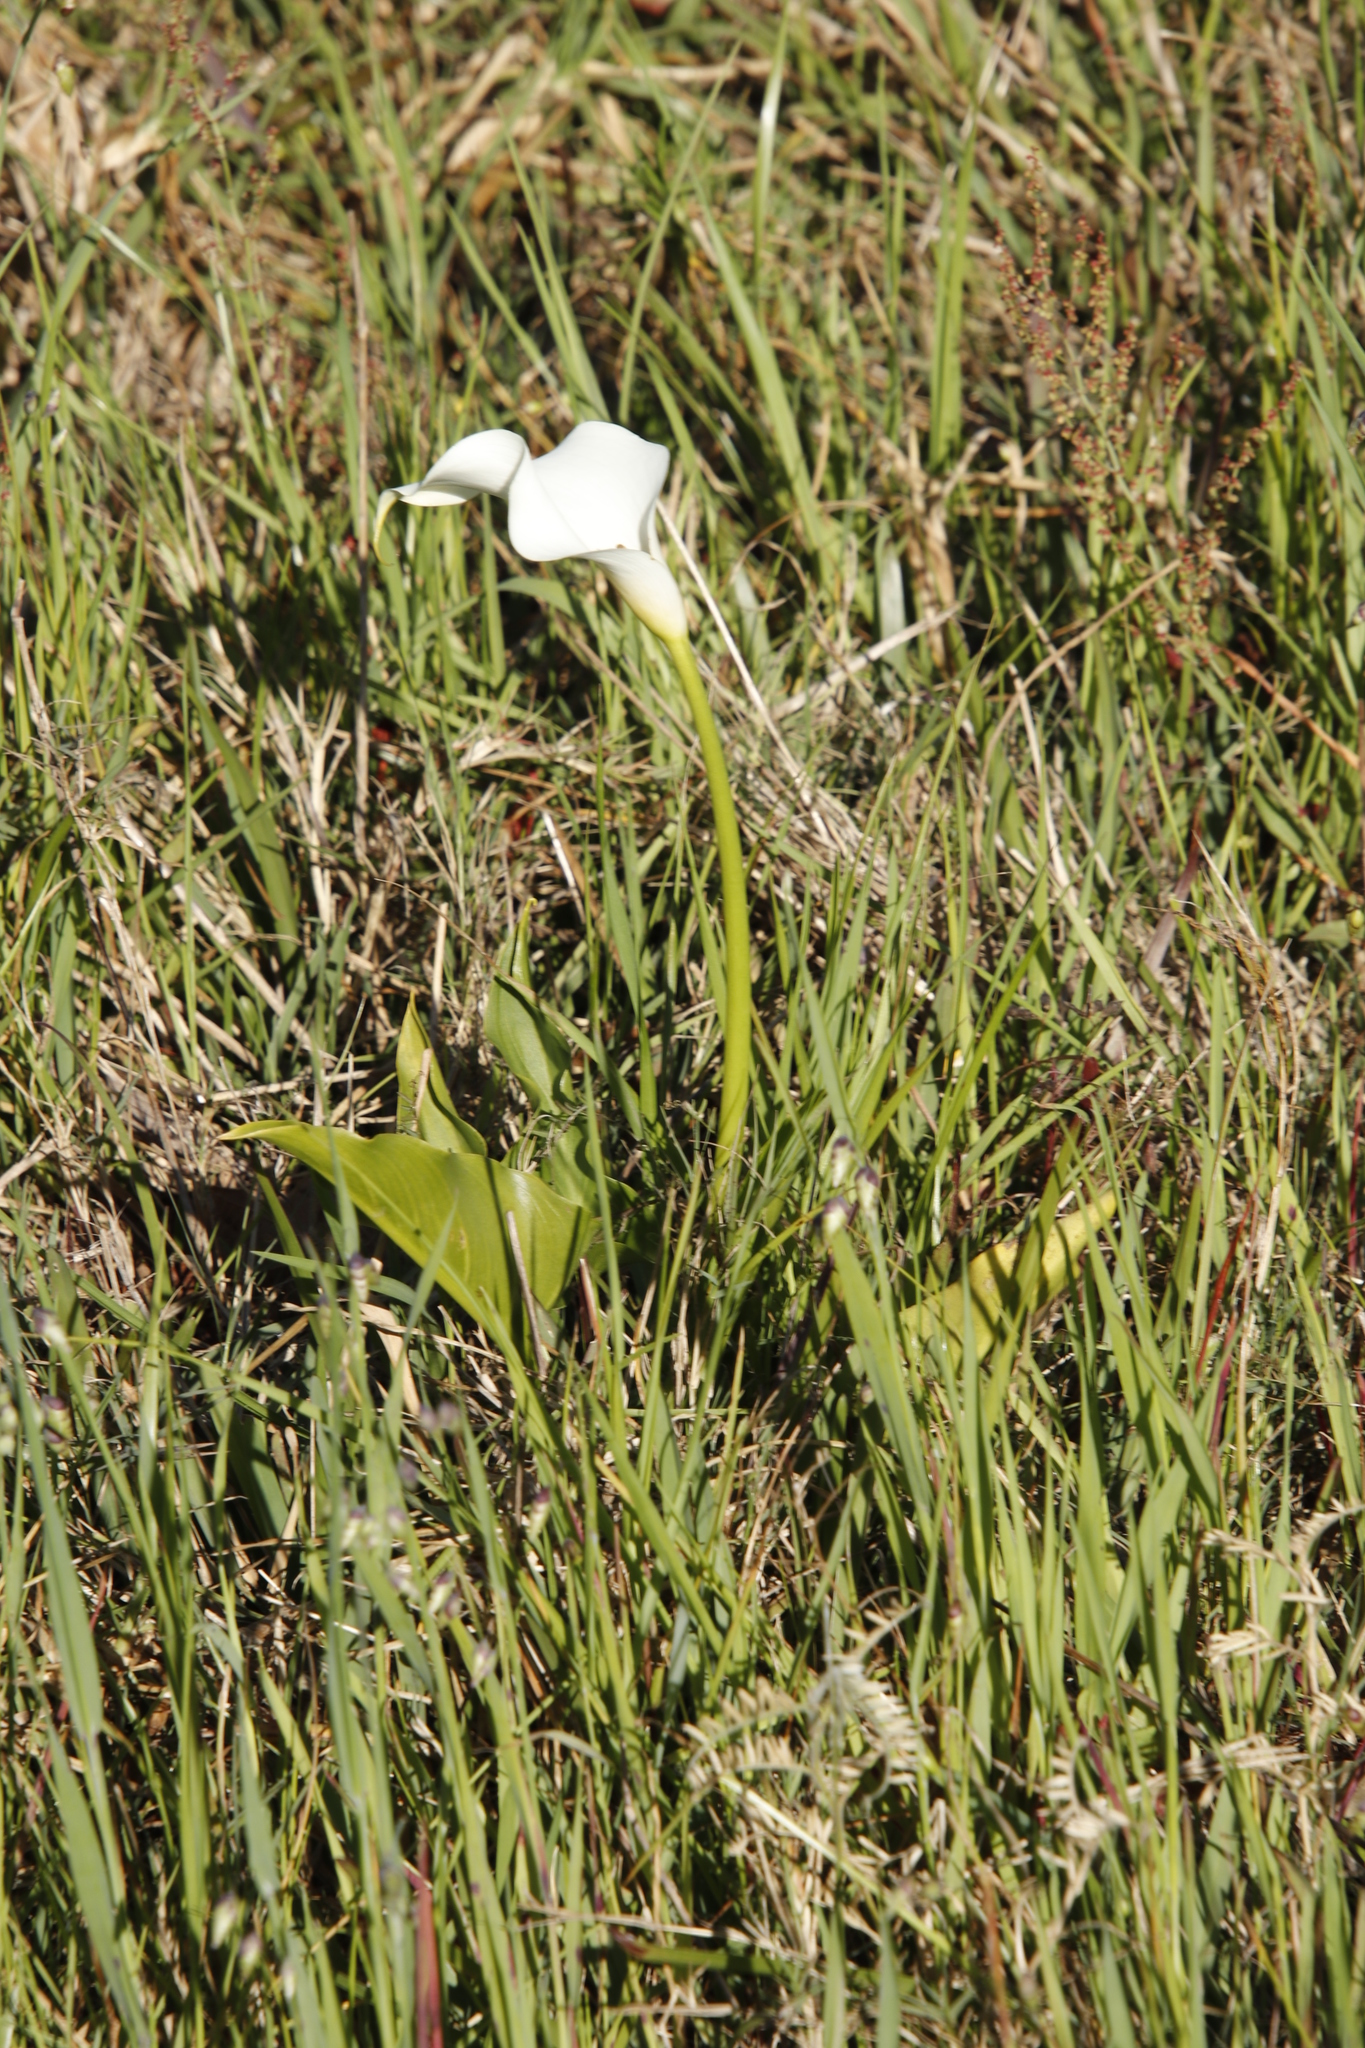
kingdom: Plantae
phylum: Tracheophyta
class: Liliopsida
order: Alismatales
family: Araceae
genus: Zantedeschia
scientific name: Zantedeschia aethiopica
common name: Altar-lily
